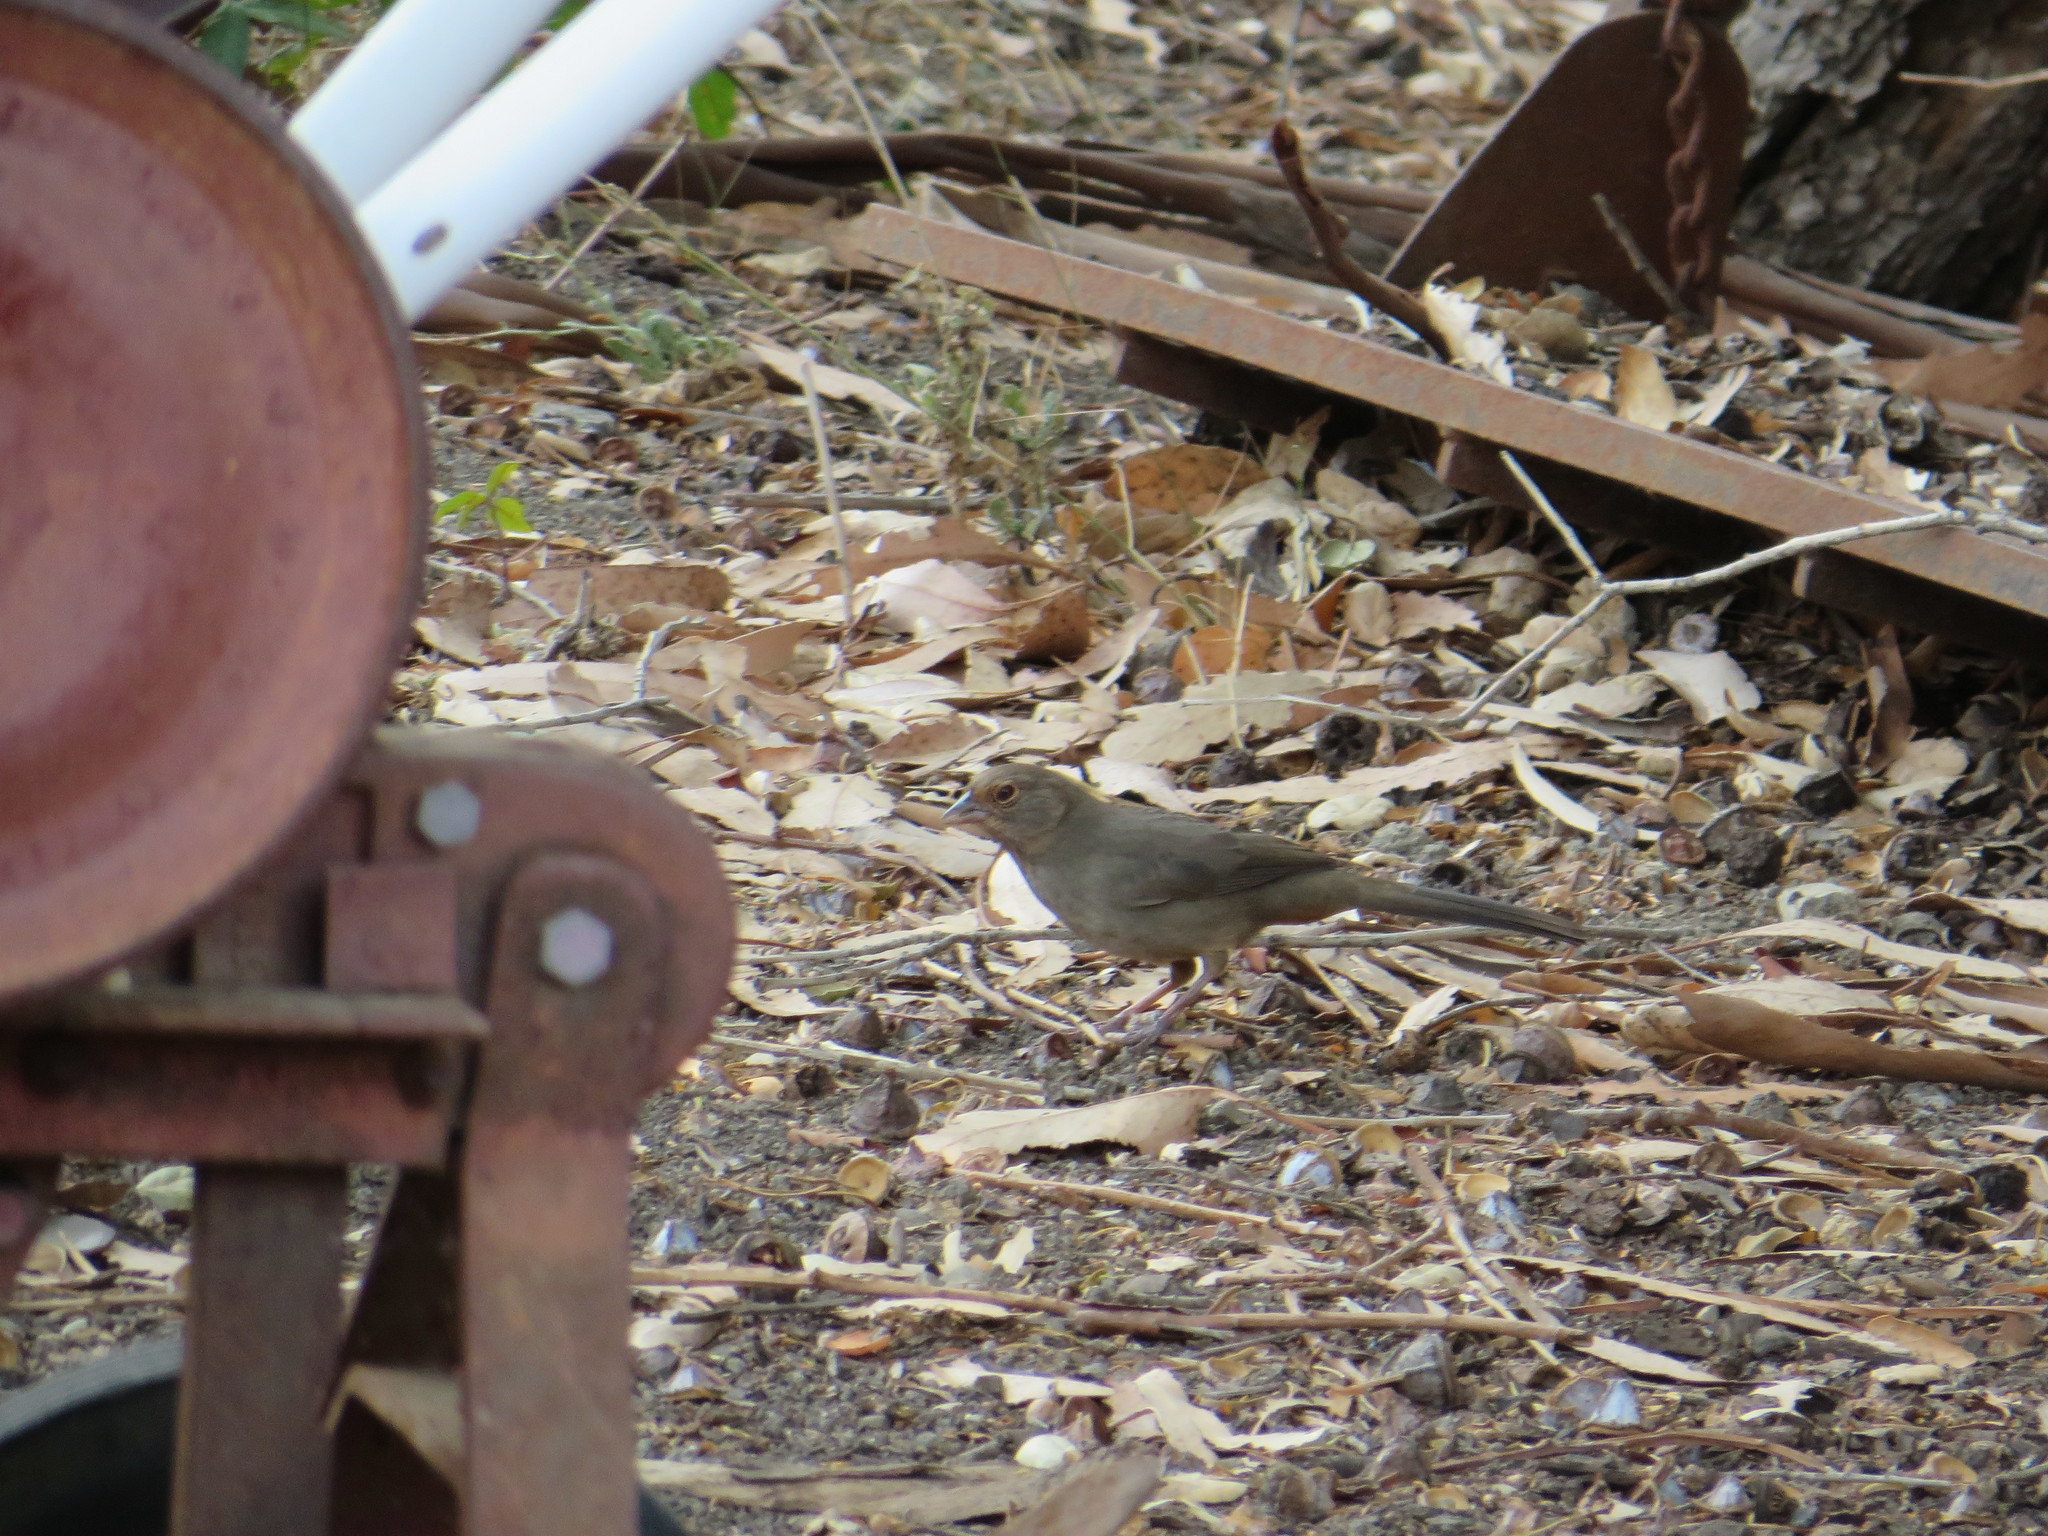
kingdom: Animalia
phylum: Chordata
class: Aves
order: Passeriformes
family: Passerellidae
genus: Melozone
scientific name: Melozone crissalis
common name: California towhee
